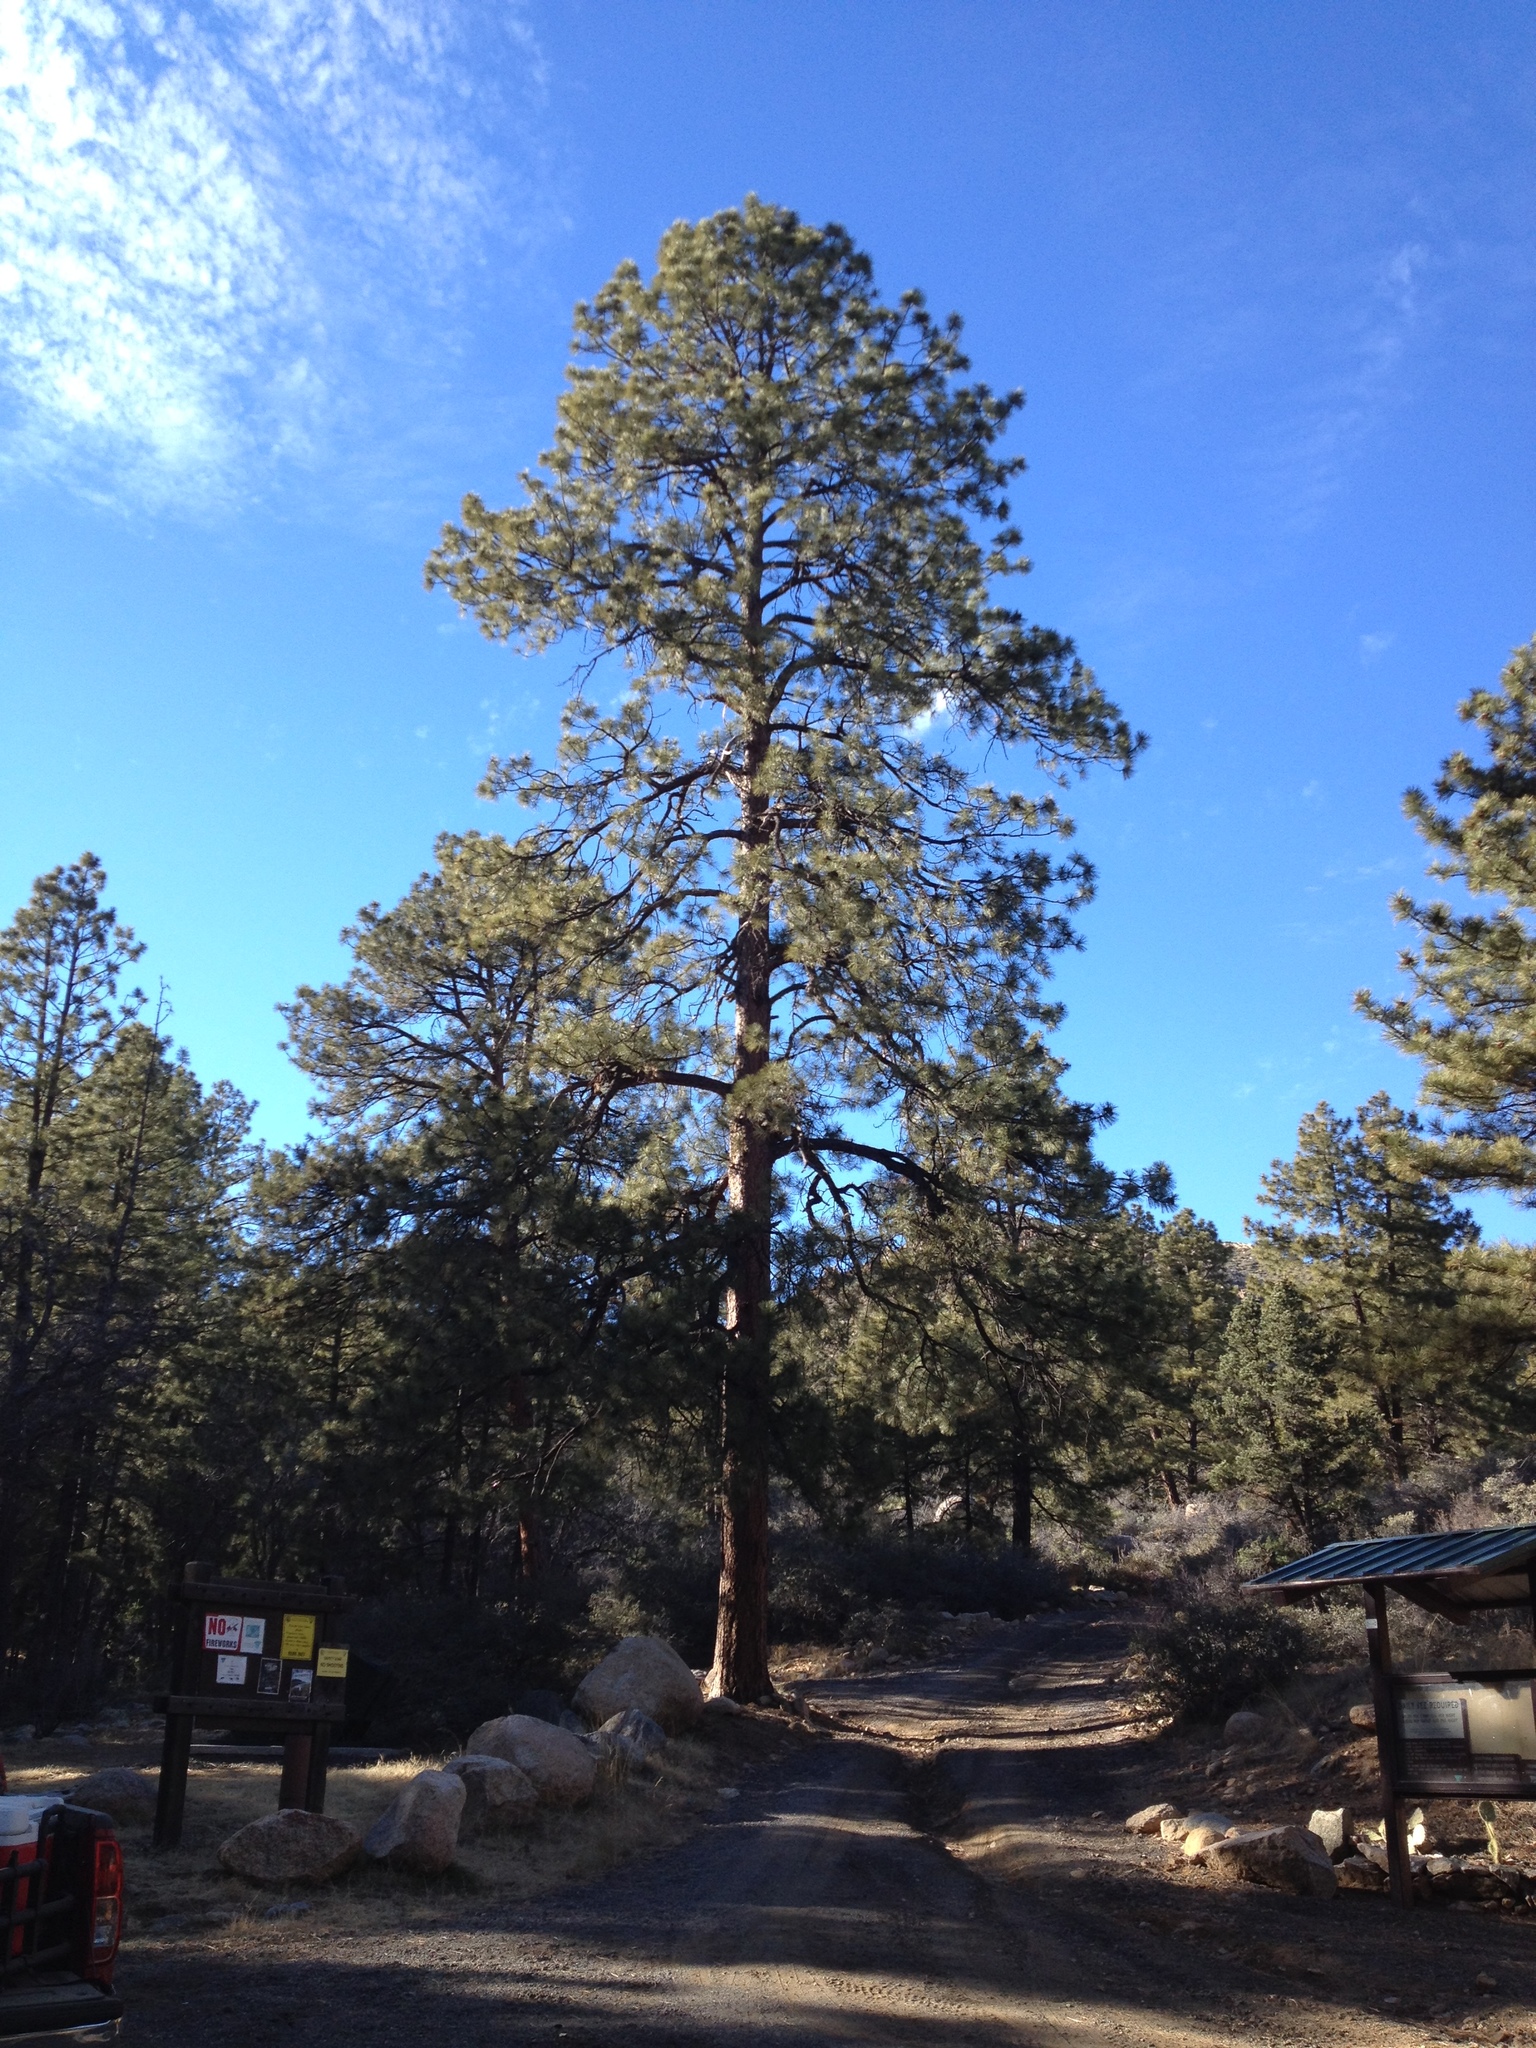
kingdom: Plantae
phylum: Tracheophyta
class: Pinopsida
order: Pinales
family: Pinaceae
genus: Pinus
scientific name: Pinus ponderosa
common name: Western yellow-pine
